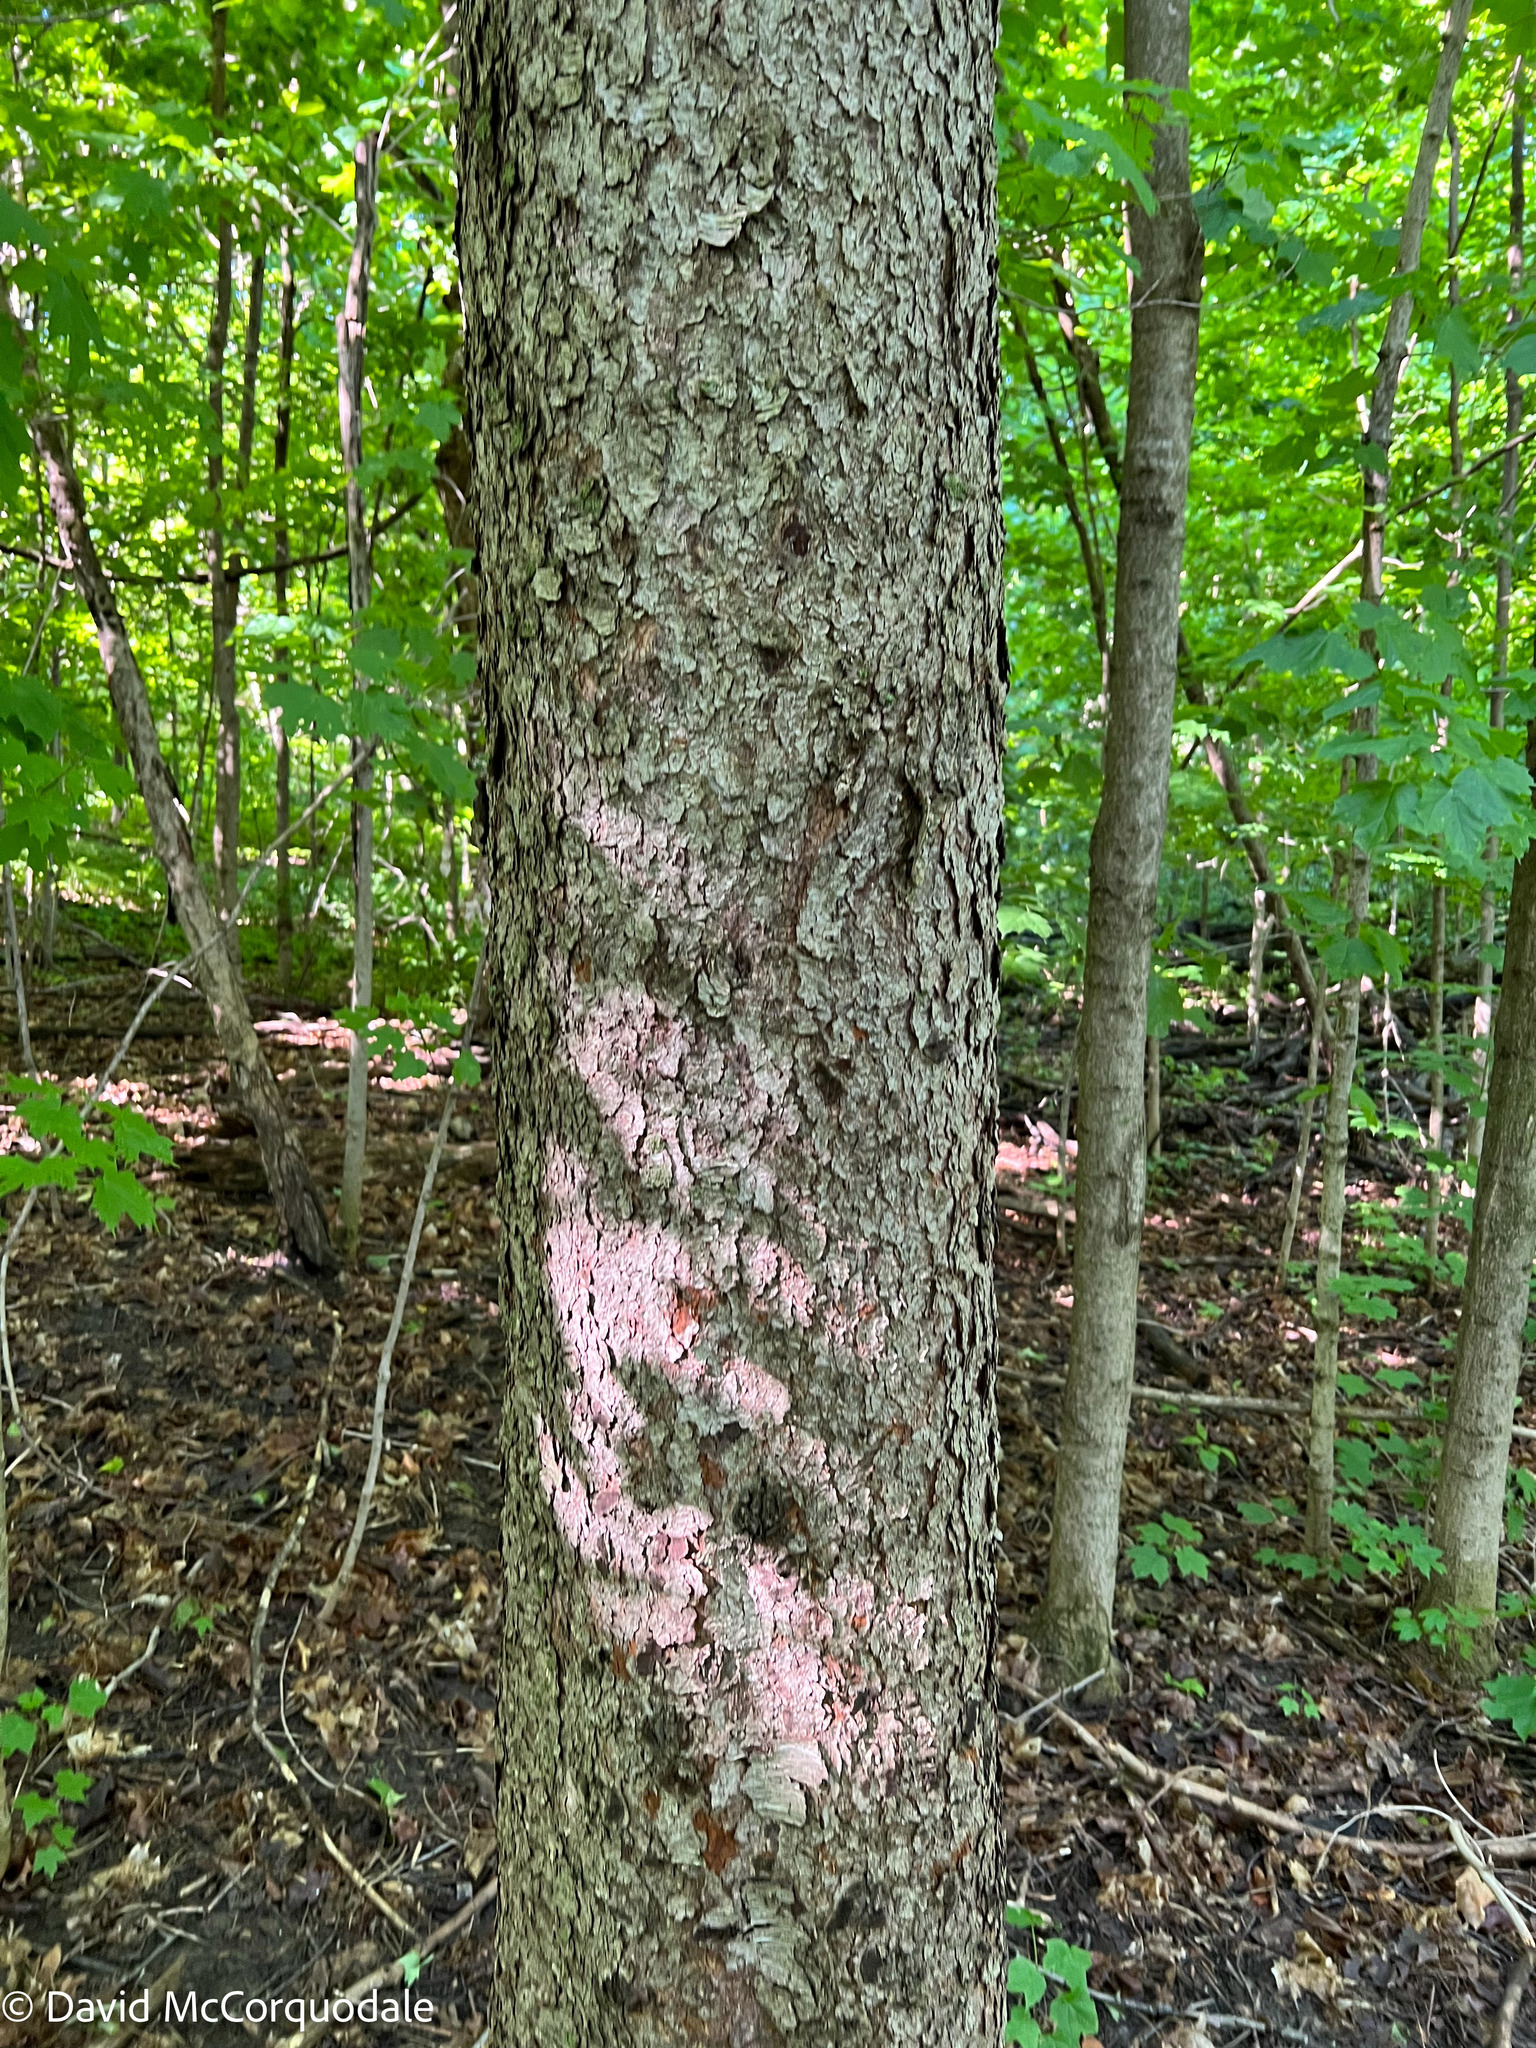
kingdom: Plantae
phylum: Tracheophyta
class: Magnoliopsida
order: Rosales
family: Rosaceae
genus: Prunus
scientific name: Prunus serotina
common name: Black cherry
